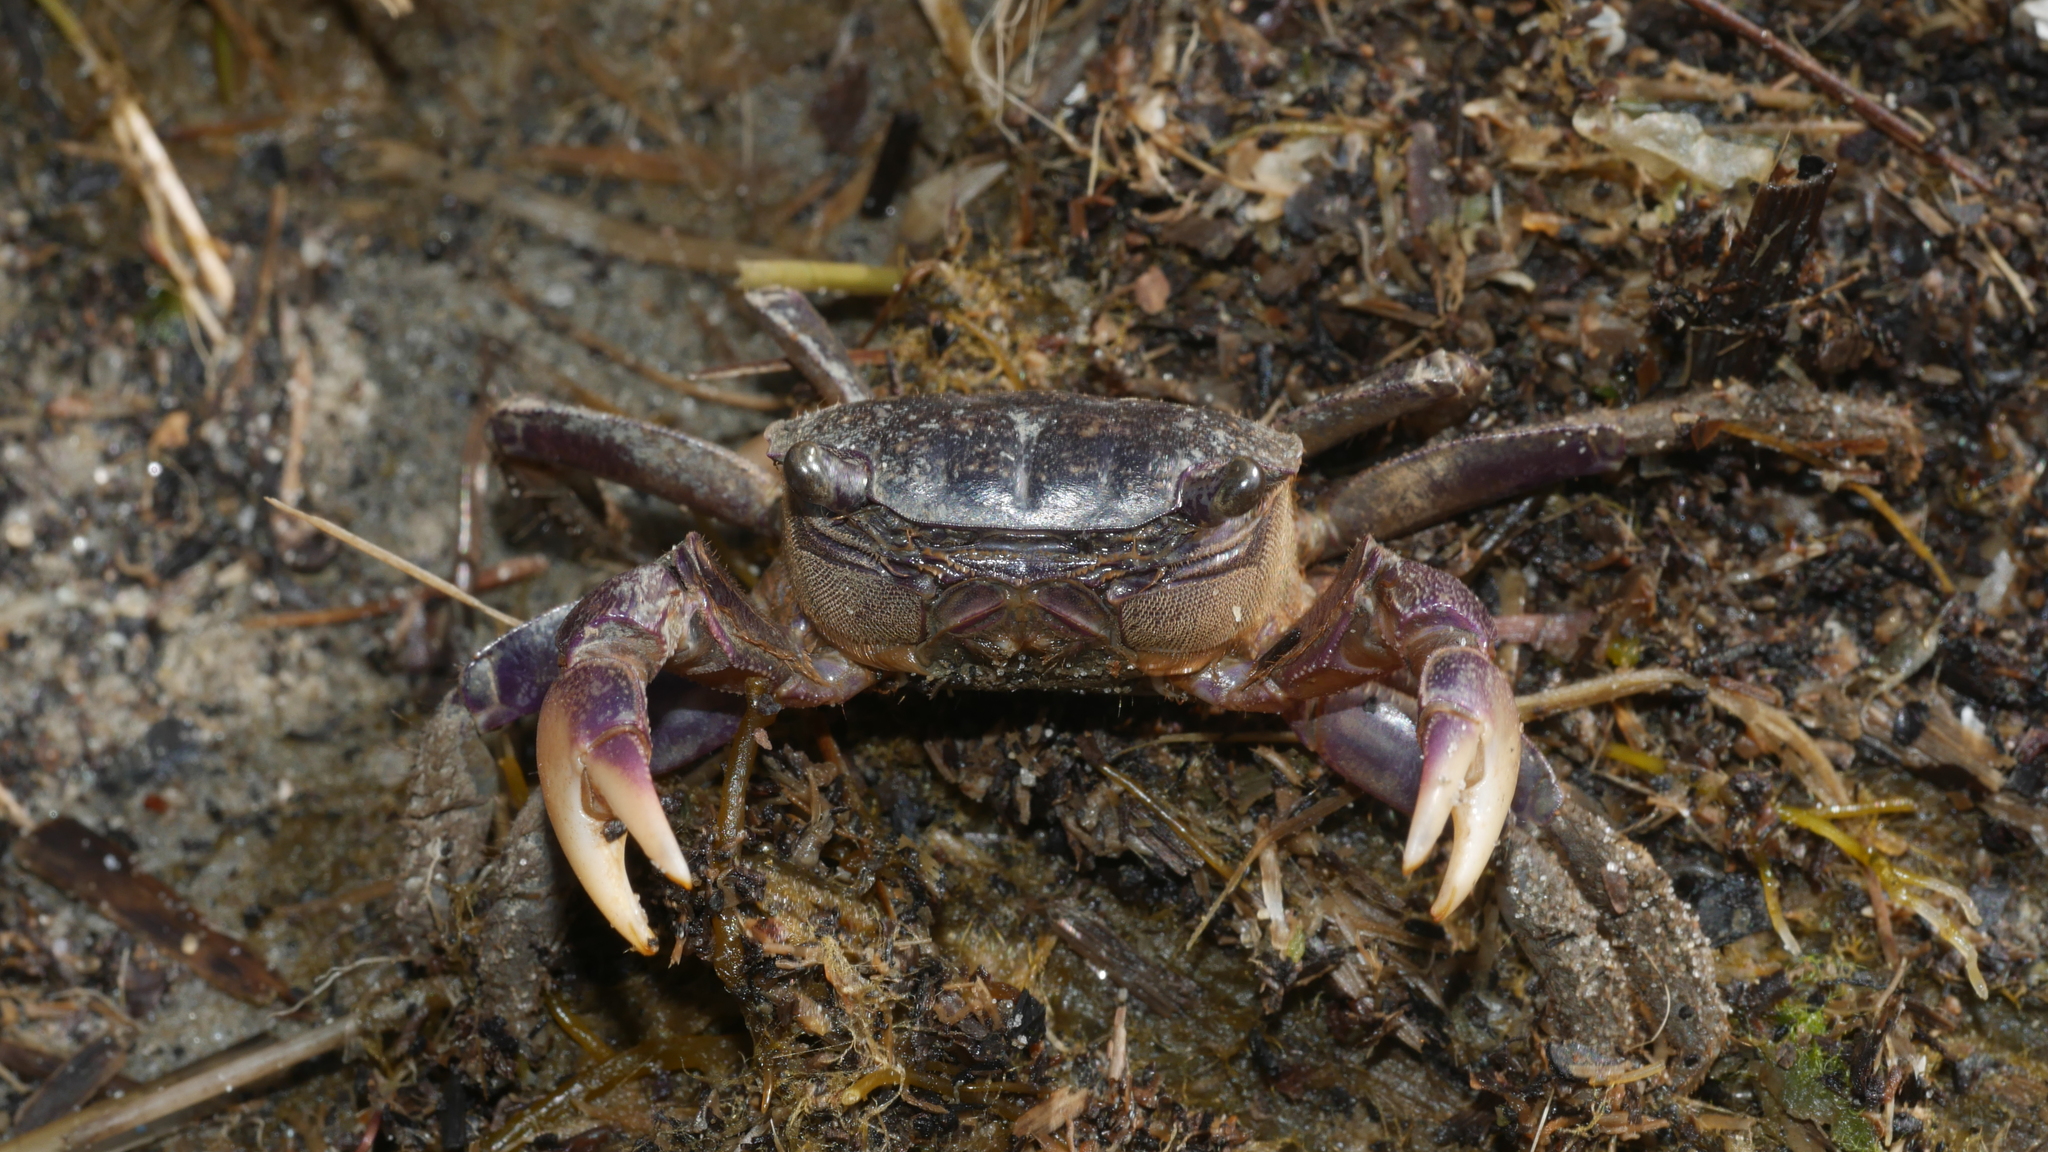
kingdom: Animalia
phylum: Arthropoda
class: Malacostraca
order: Decapoda
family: Sesarmidae
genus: Sesarma
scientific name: Sesarma reticulatum
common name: Heavy marsh crab
